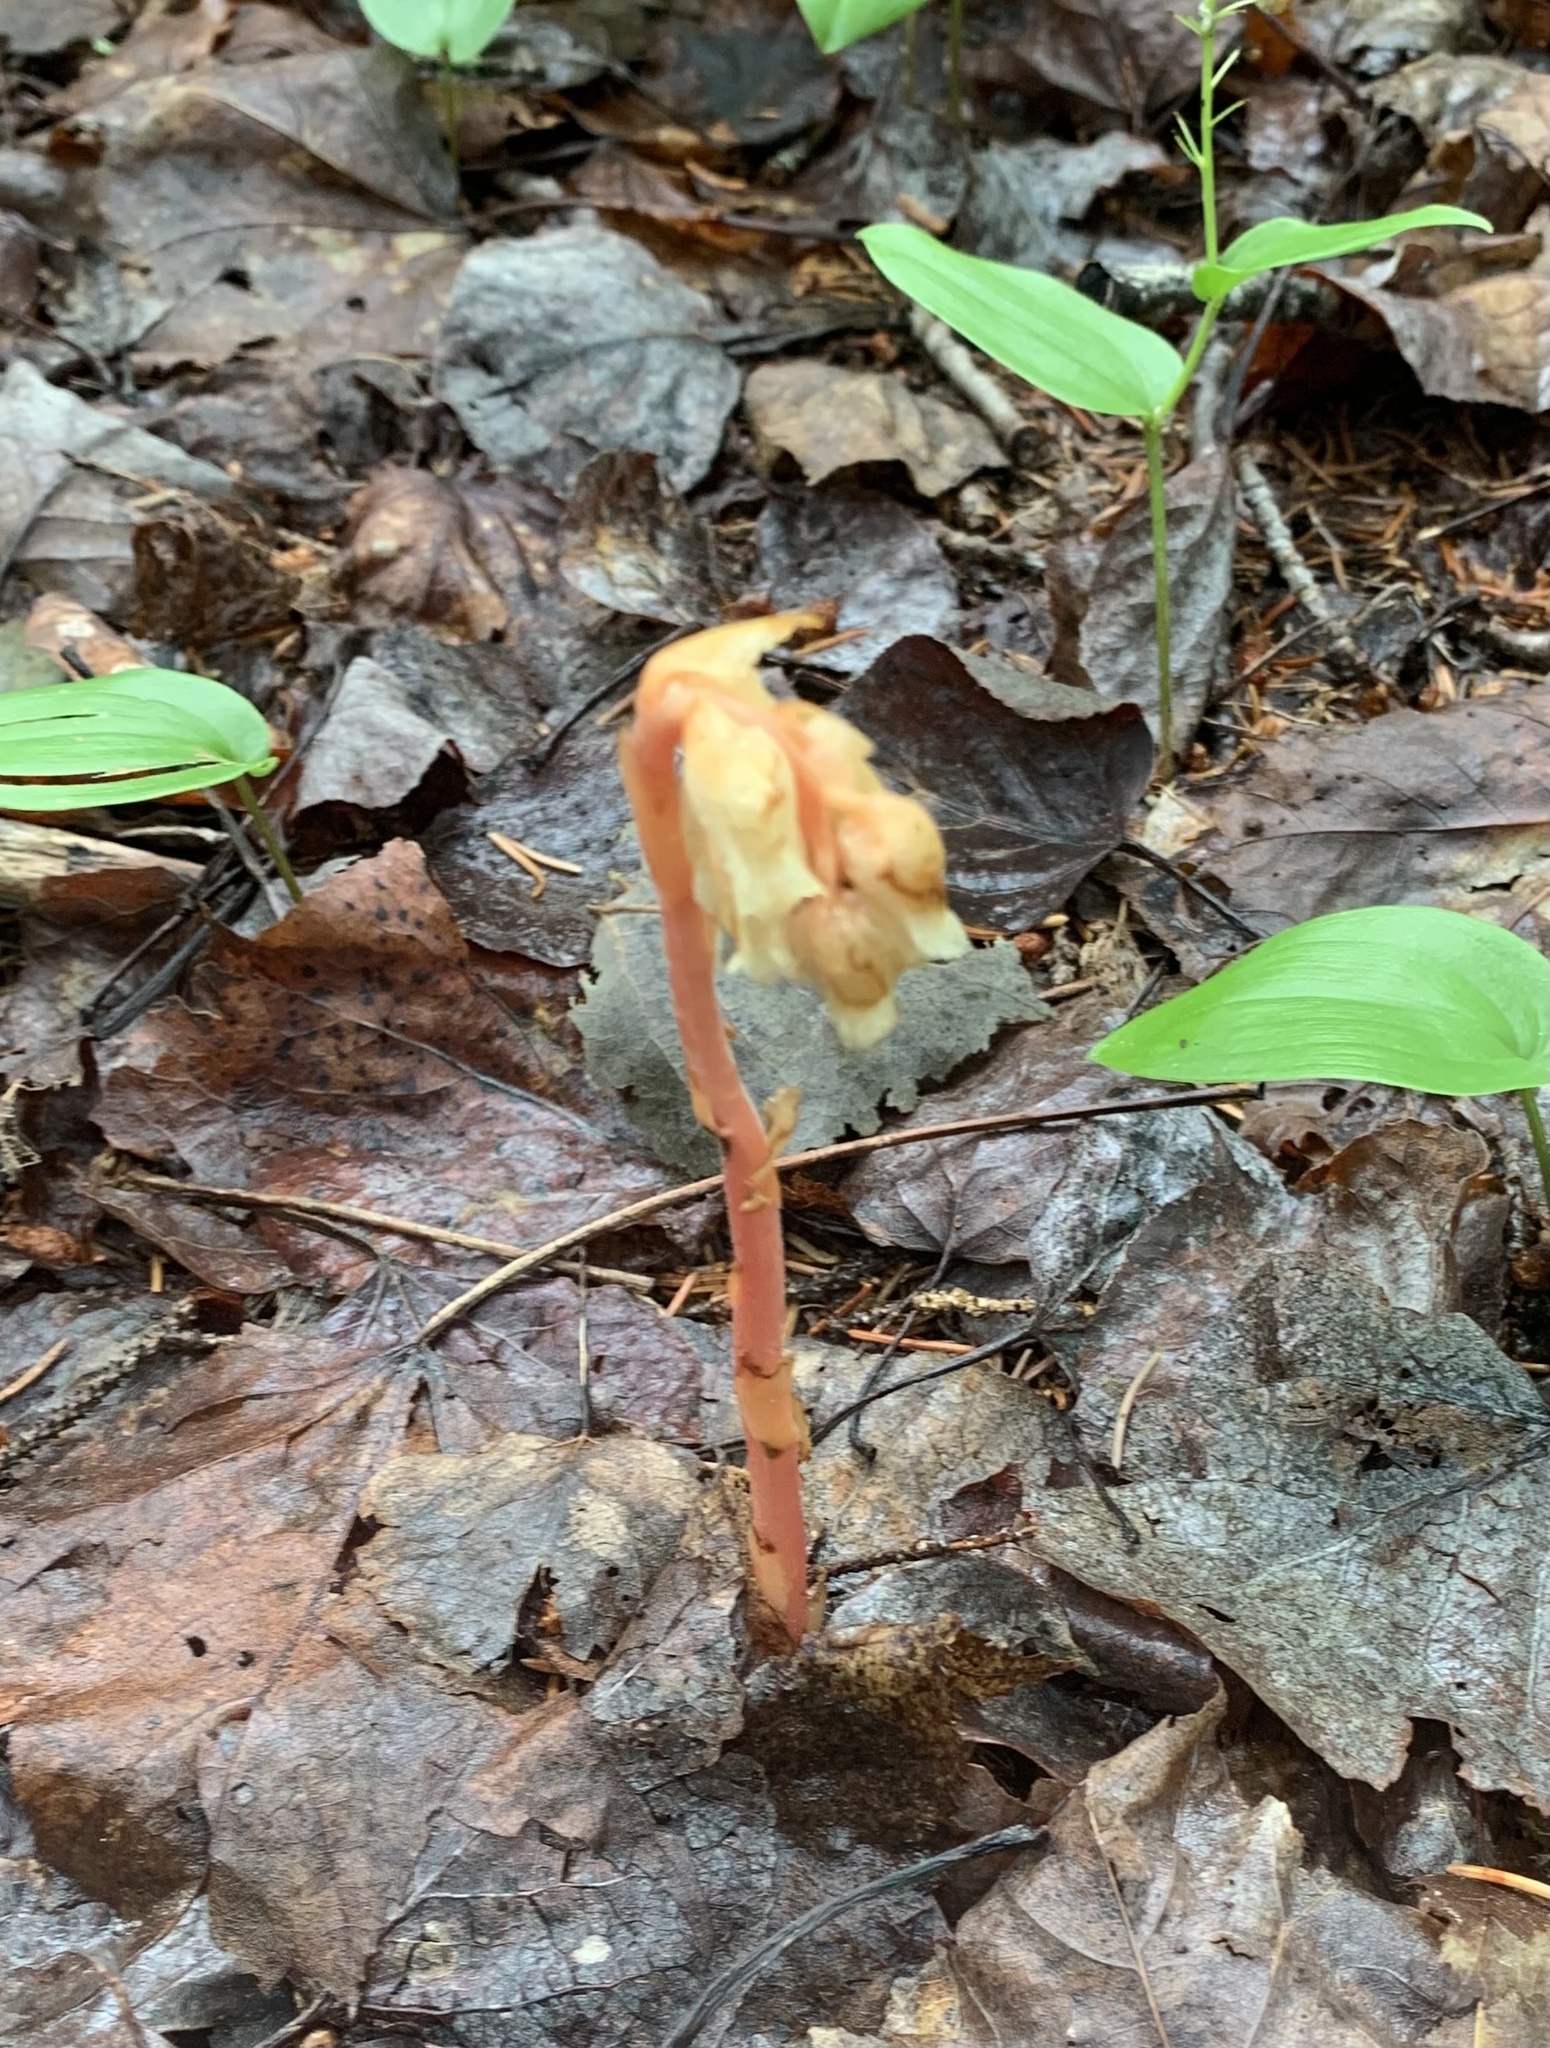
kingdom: Plantae
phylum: Tracheophyta
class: Magnoliopsida
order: Ericales
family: Ericaceae
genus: Hypopitys
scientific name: Hypopitys monotropa
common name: Yellow bird's-nest
